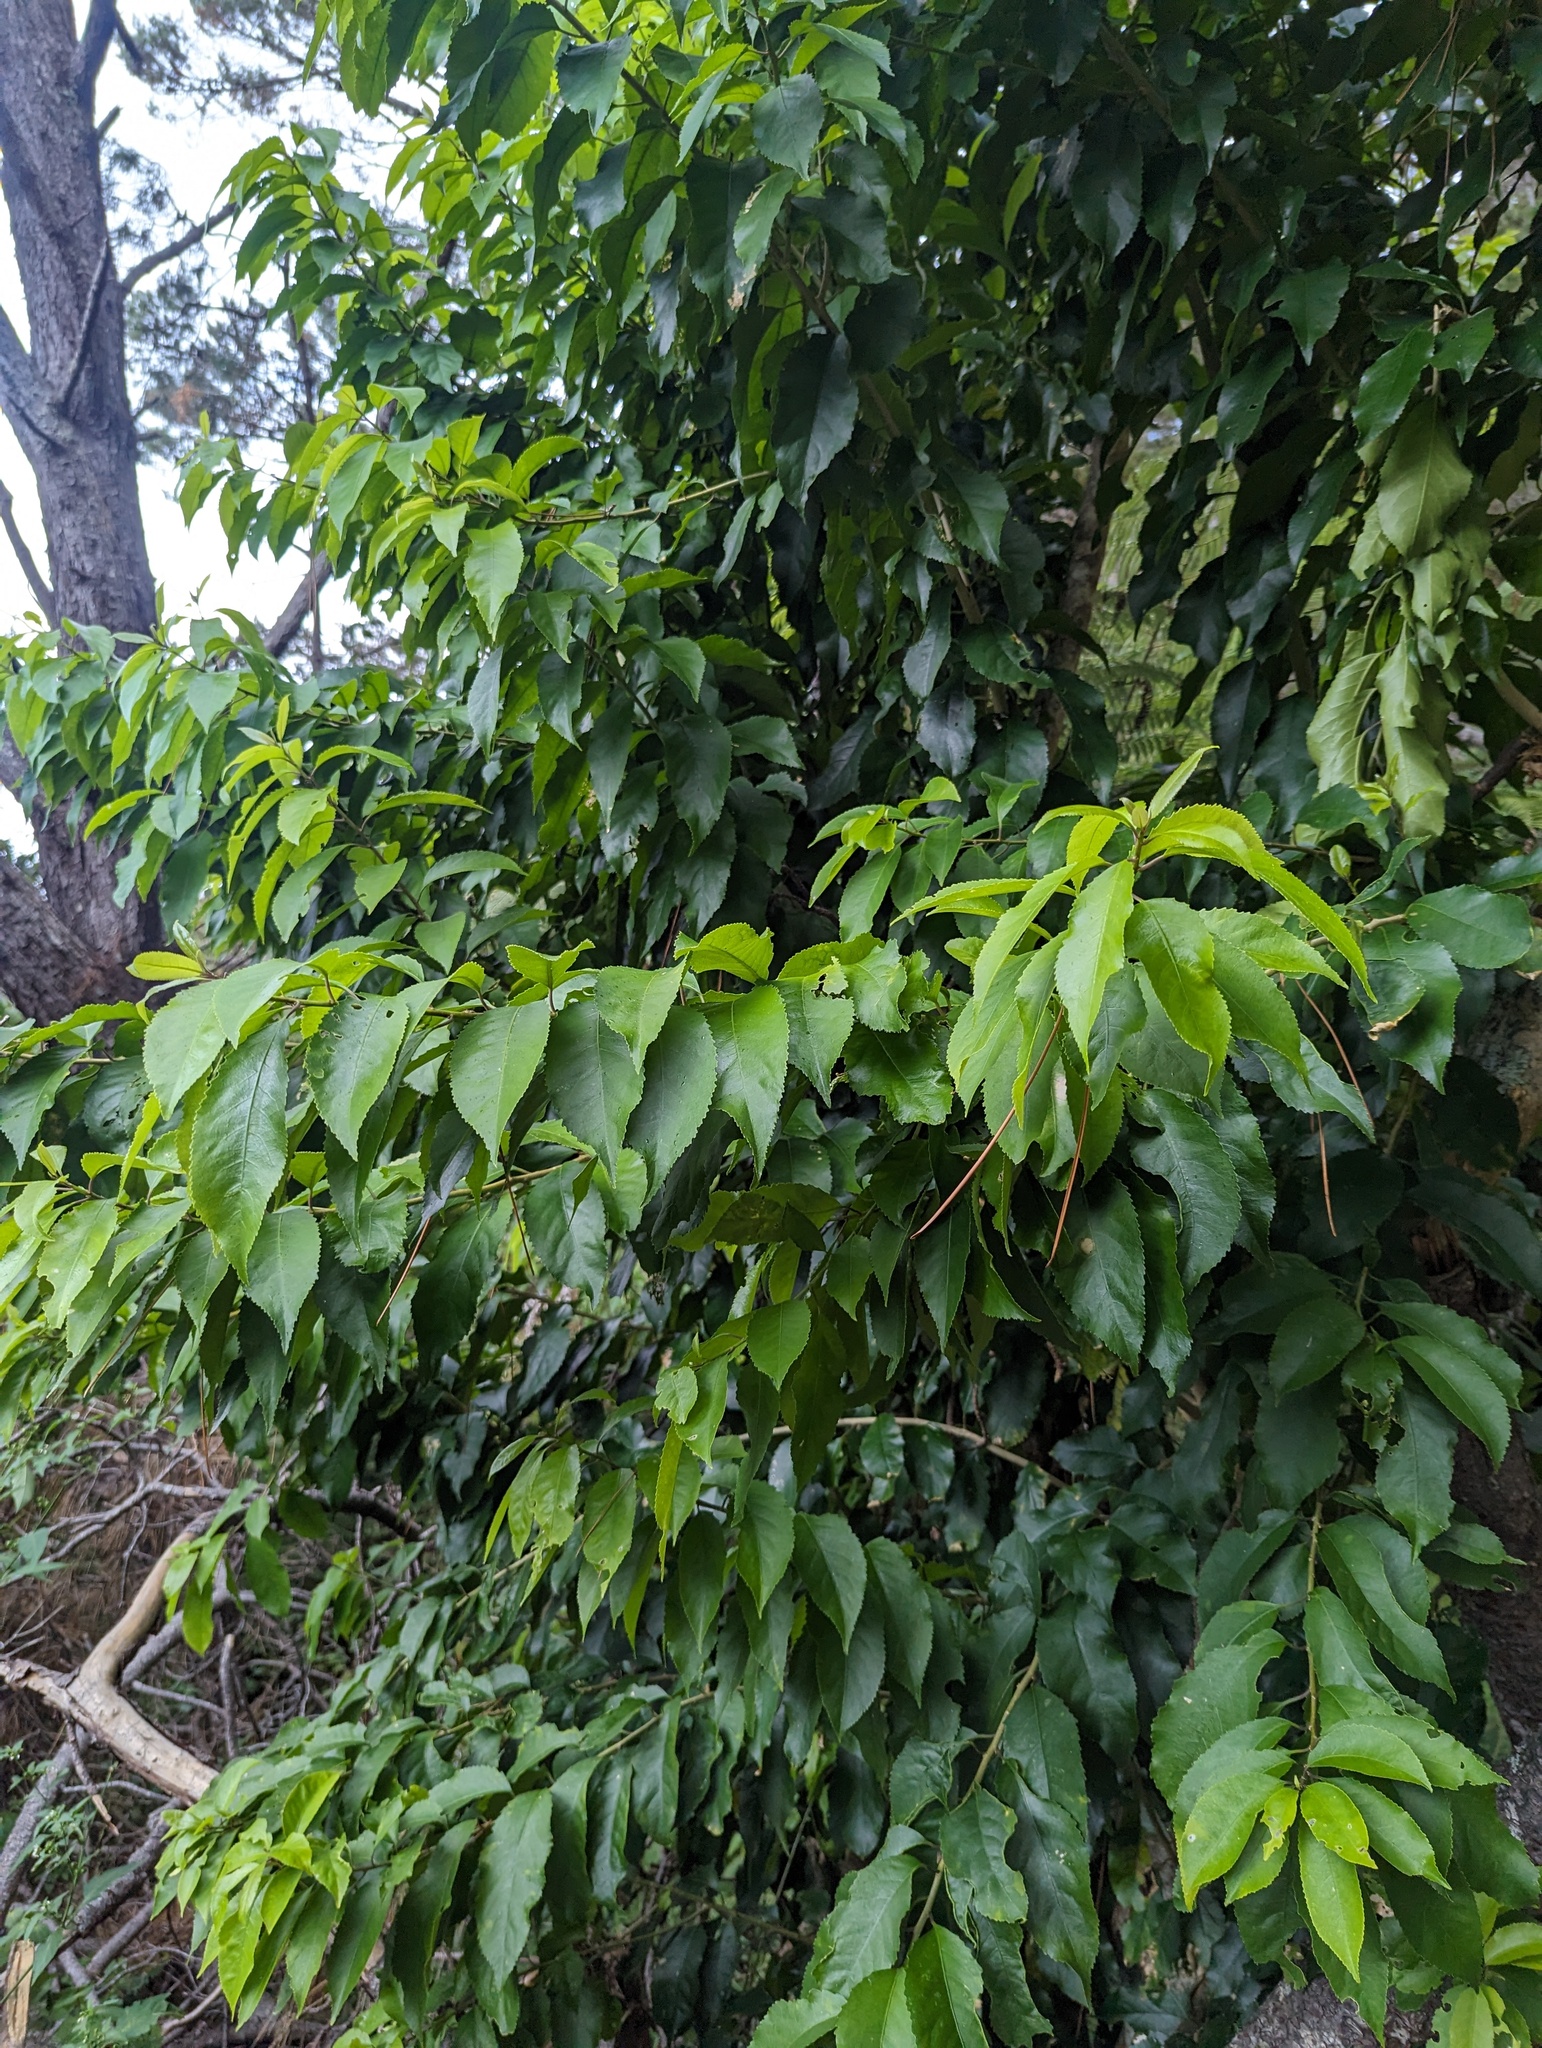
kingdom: Plantae
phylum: Tracheophyta
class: Magnoliopsida
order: Malpighiales
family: Violaceae
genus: Melicytus
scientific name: Melicytus ramiflorus
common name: Mahoe
